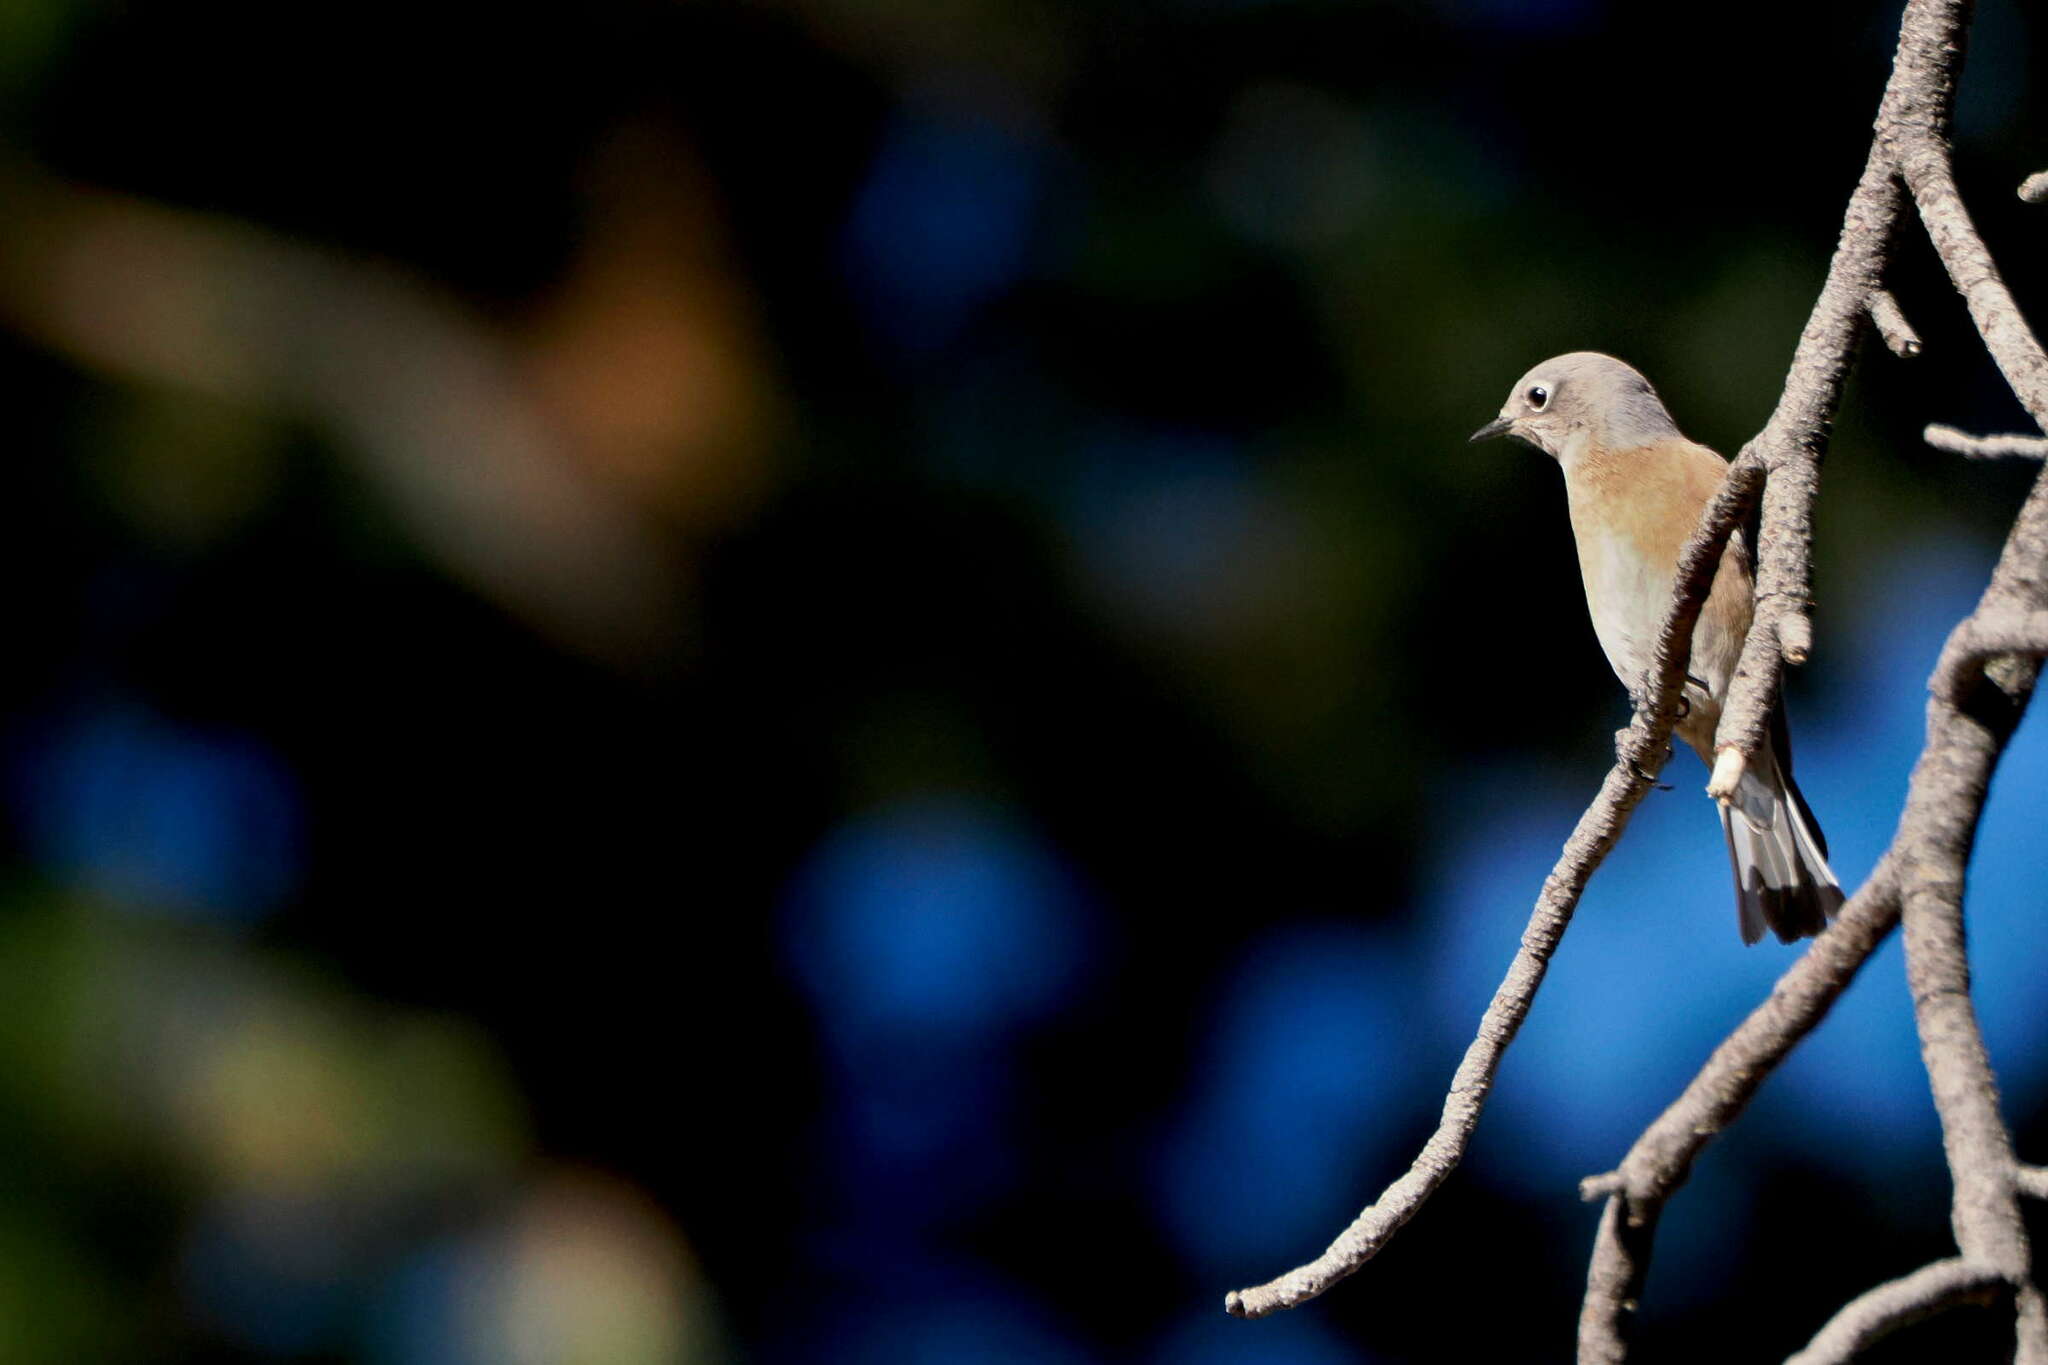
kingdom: Animalia
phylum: Chordata
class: Aves
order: Passeriformes
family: Turdidae
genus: Sialia
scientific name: Sialia mexicana
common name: Western bluebird
